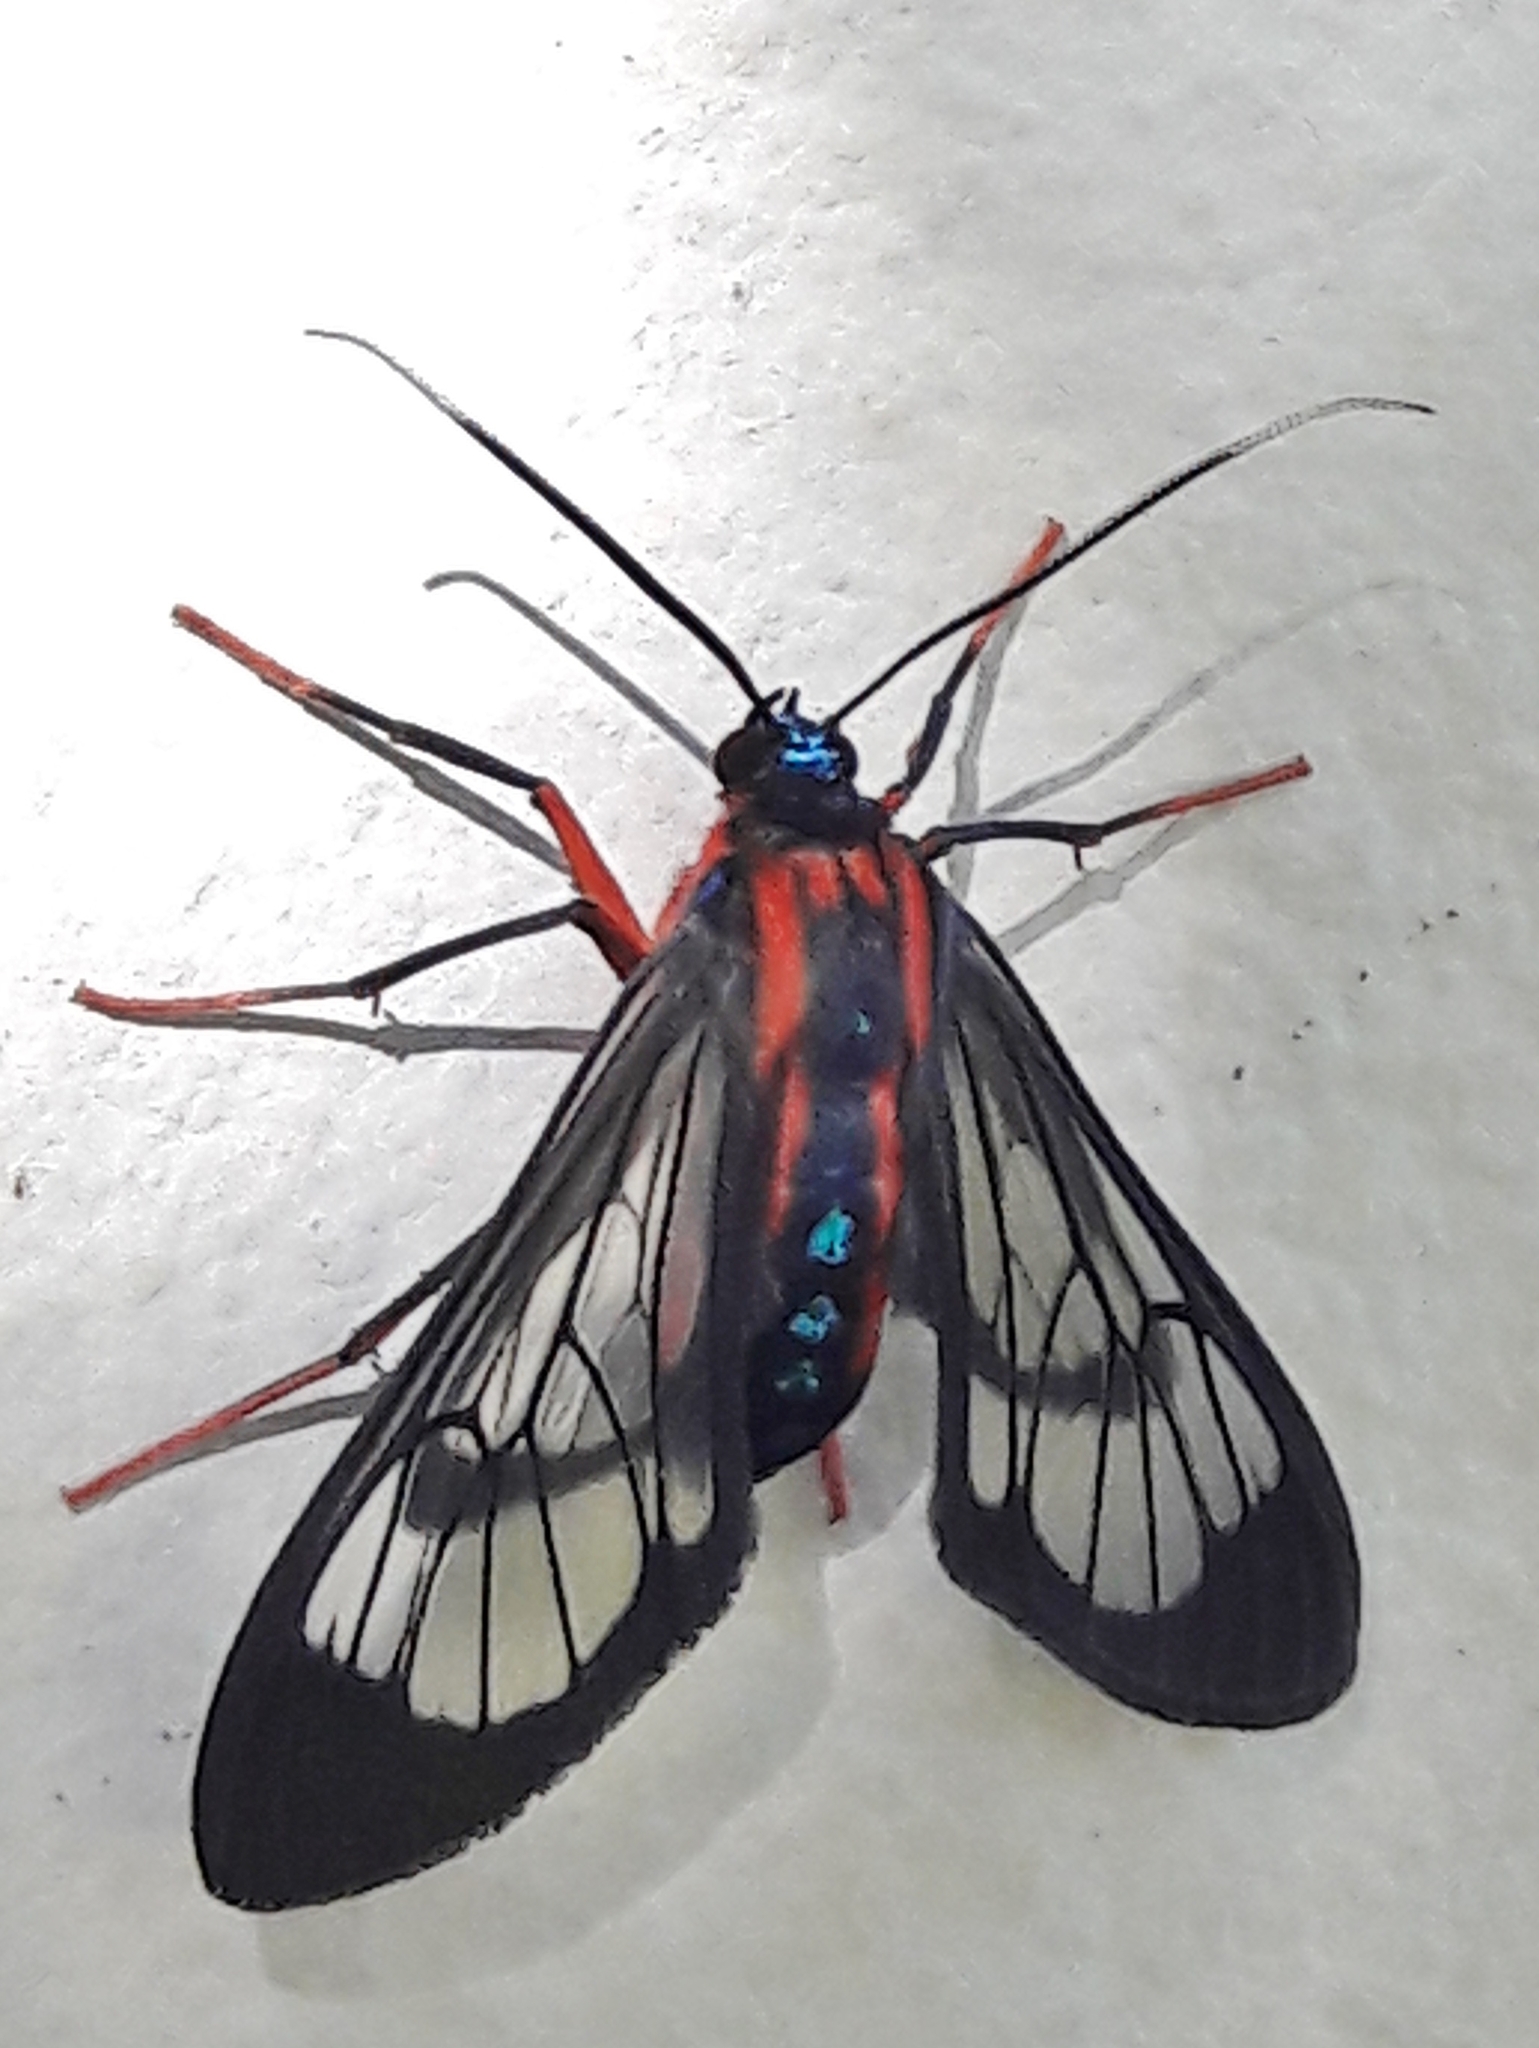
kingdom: Animalia
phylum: Arthropoda
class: Insecta
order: Lepidoptera
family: Erebidae
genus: Cosmosoma
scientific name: Cosmosoma auge
